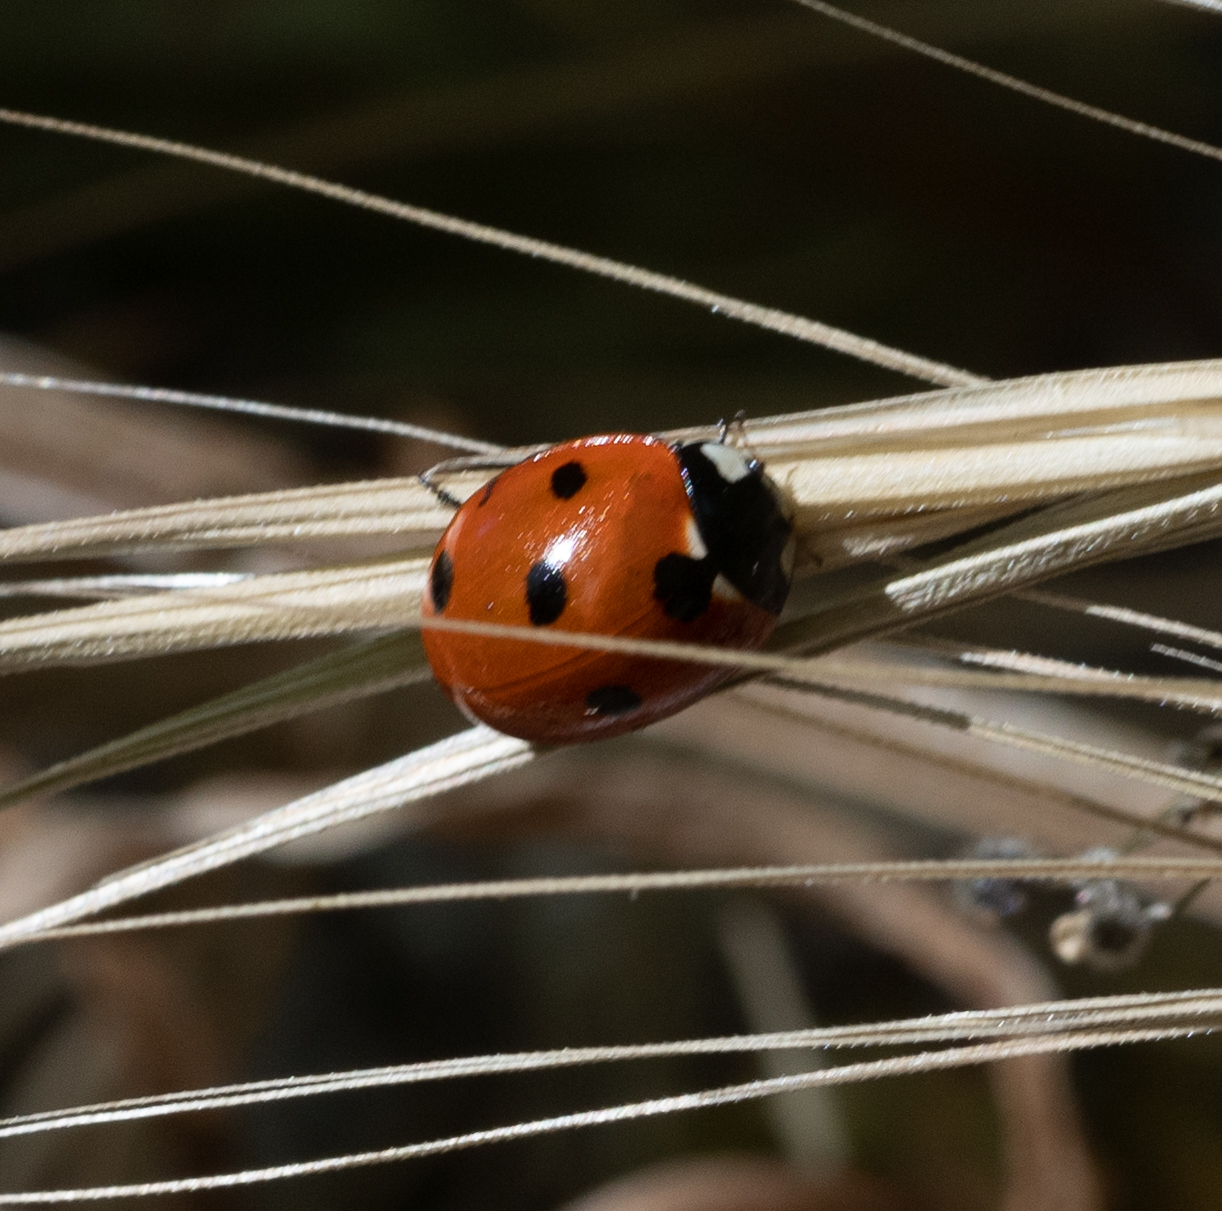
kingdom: Animalia
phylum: Arthropoda
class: Insecta
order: Coleoptera
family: Coccinellidae
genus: Coccinella
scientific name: Coccinella septempunctata
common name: Sevenspotted lady beetle
